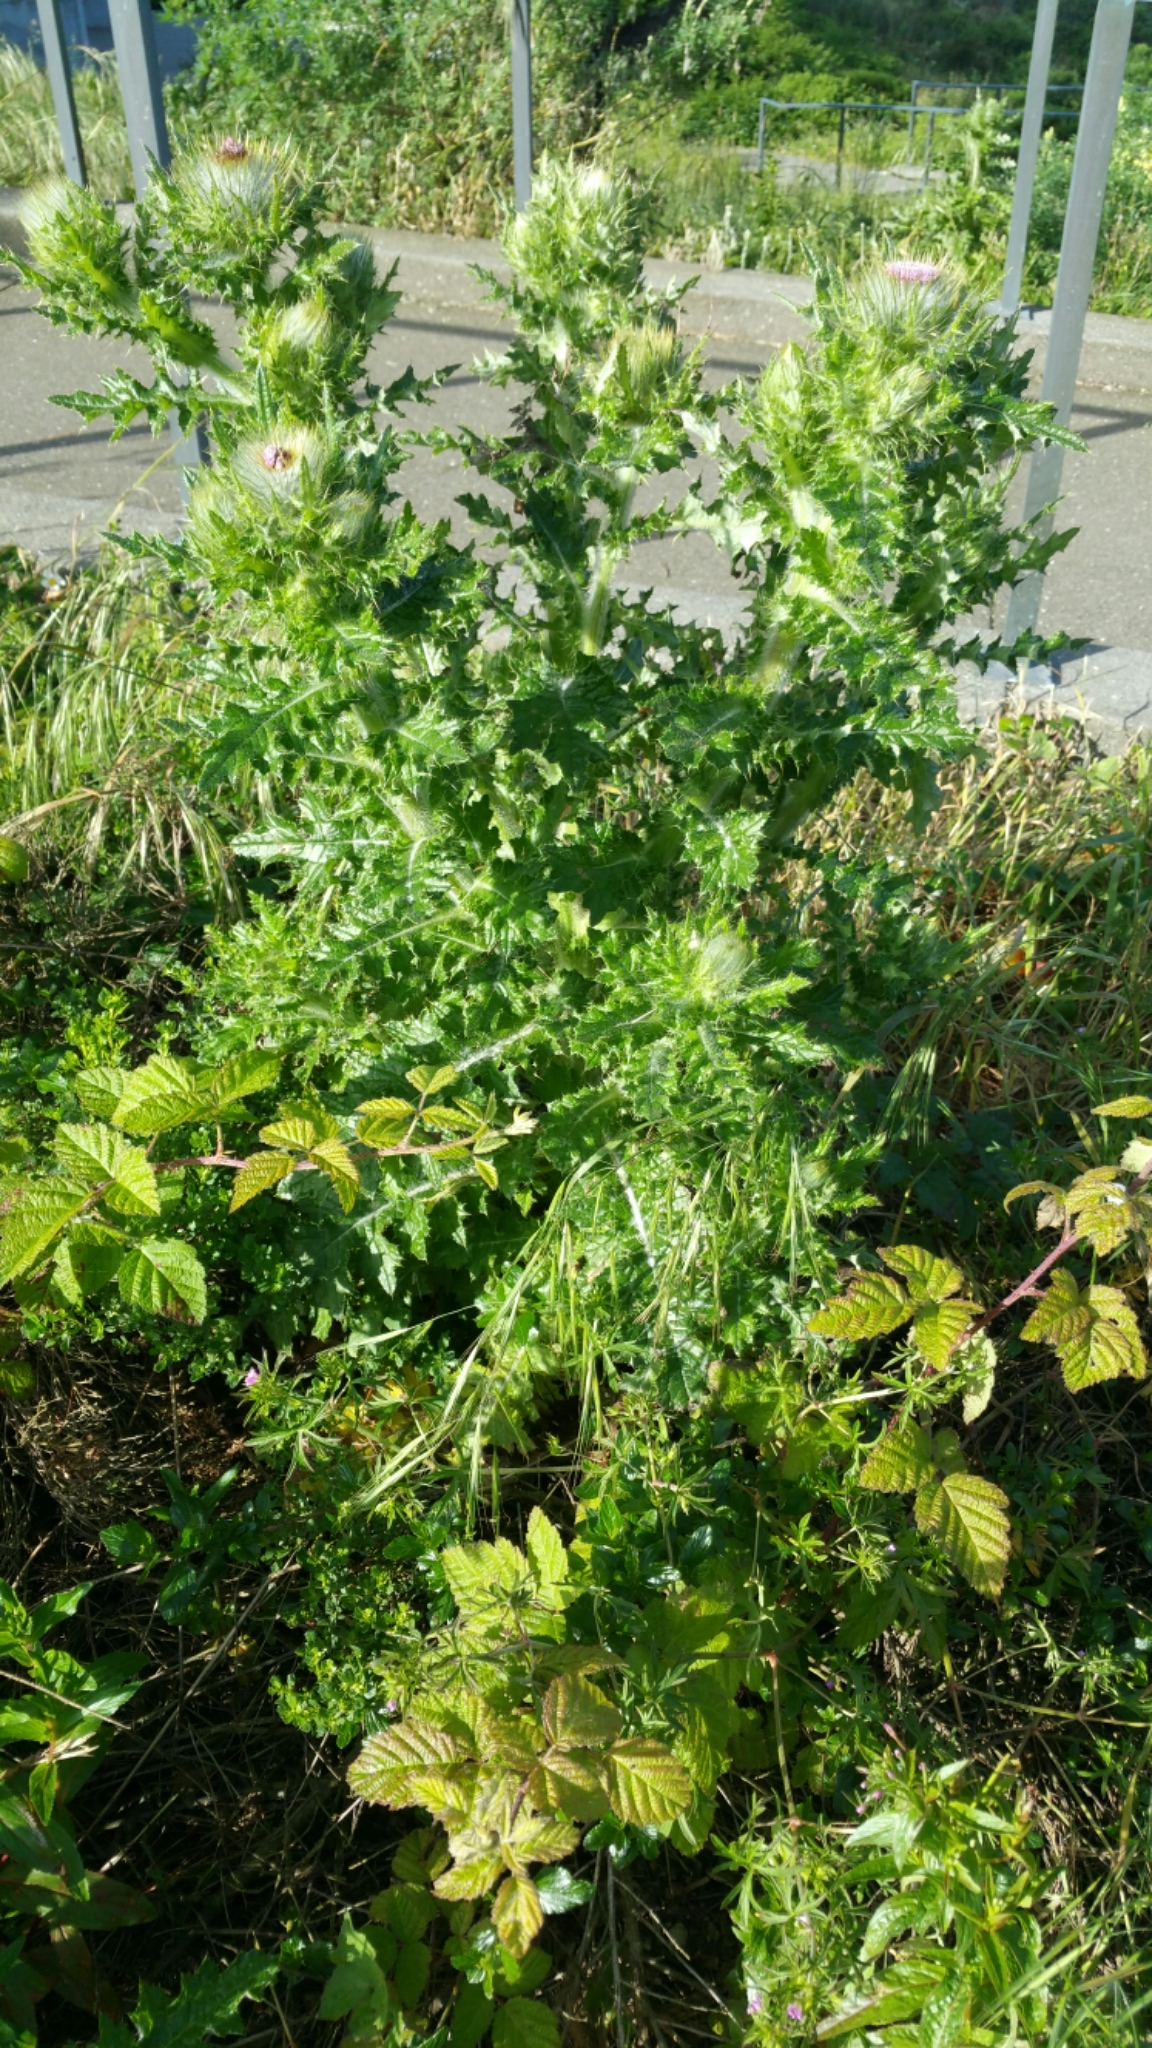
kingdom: Plantae
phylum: Tracheophyta
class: Magnoliopsida
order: Asterales
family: Asteraceae
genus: Cirsium
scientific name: Cirsium brevistylum
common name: Indian thistle
